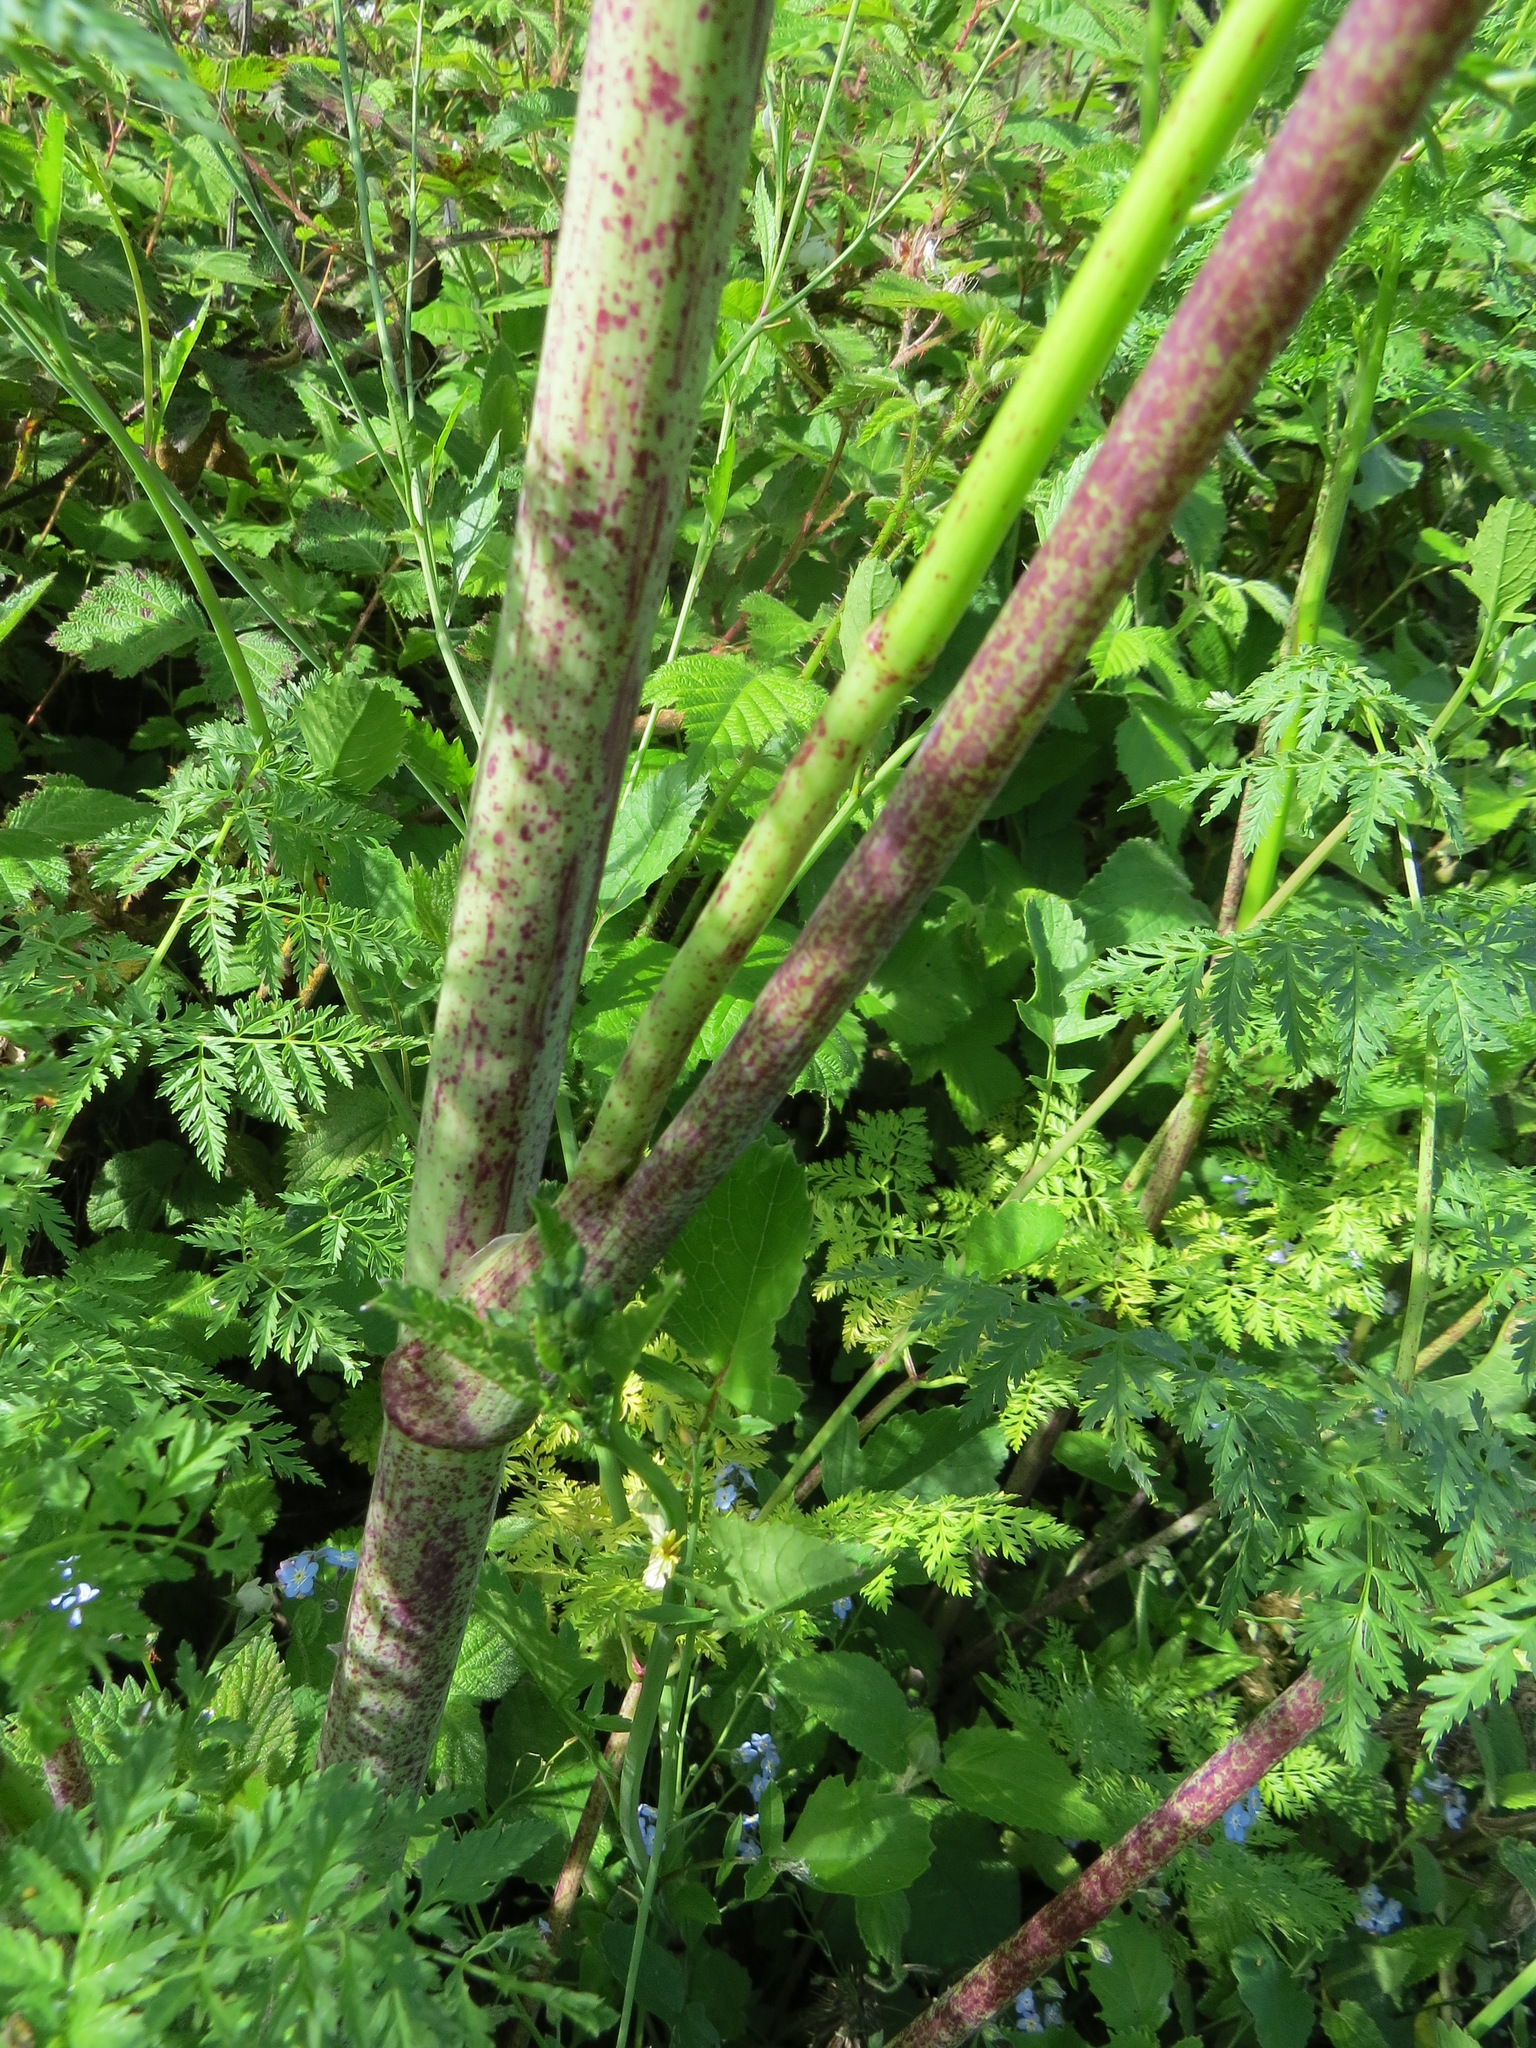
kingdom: Plantae
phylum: Tracheophyta
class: Magnoliopsida
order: Apiales
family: Apiaceae
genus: Conium
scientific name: Conium maculatum
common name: Hemlock
